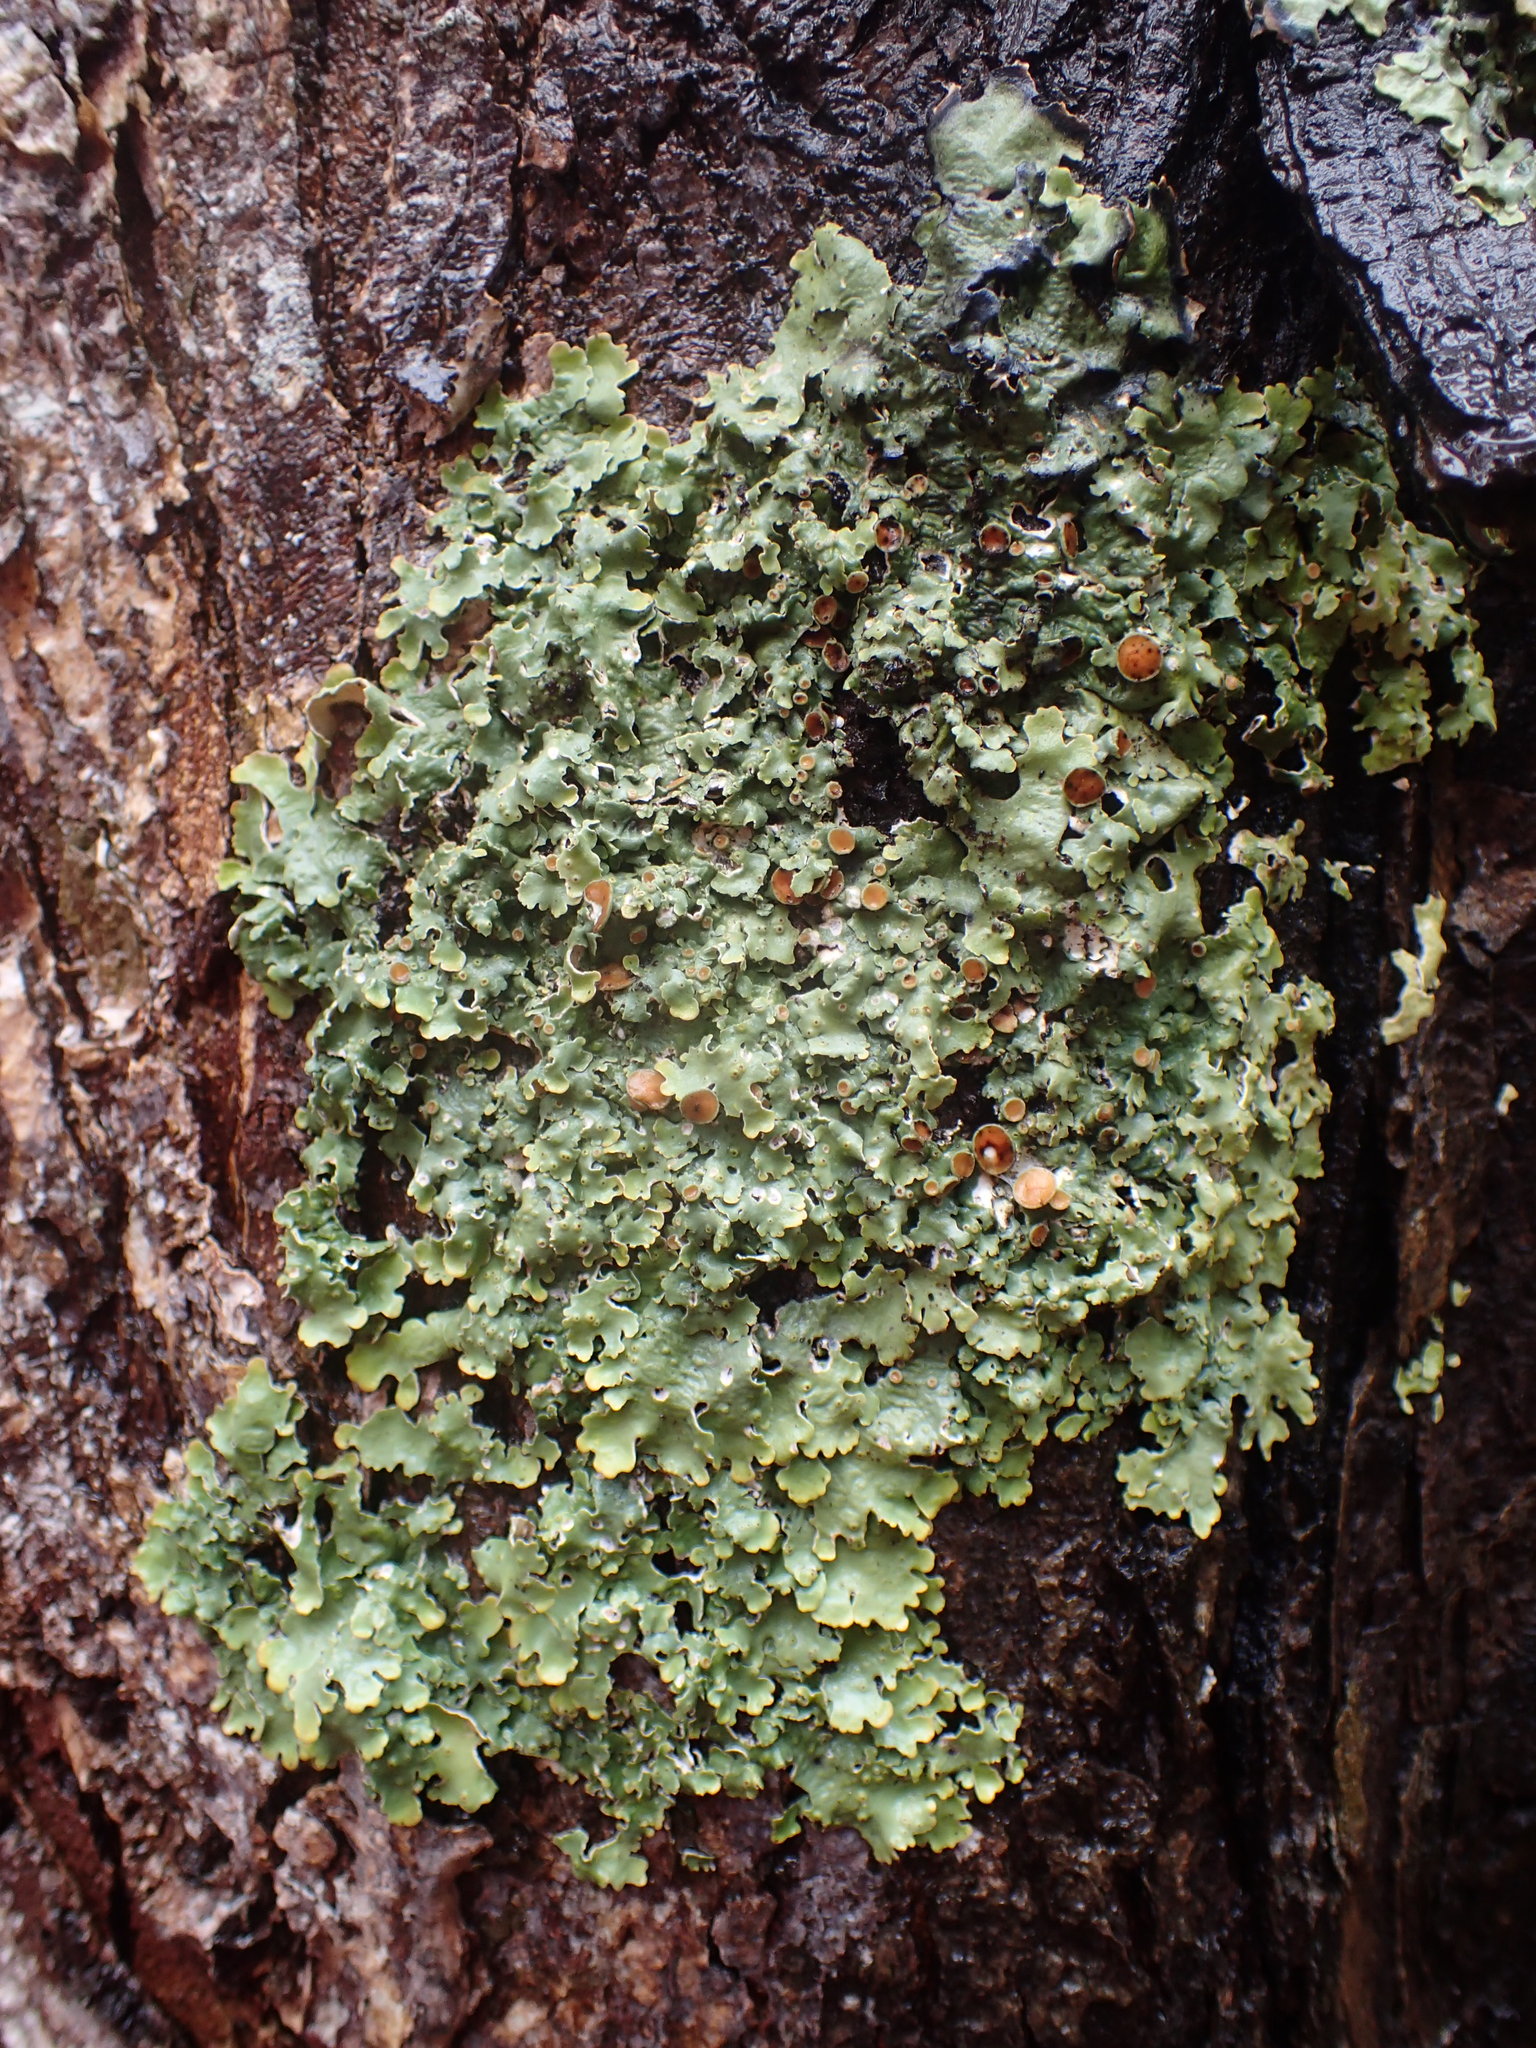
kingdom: Fungi
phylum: Ascomycota
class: Lecanoromycetes
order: Peltigerales
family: Lobariaceae
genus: Ricasolia
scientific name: Ricasolia quercizans
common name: Smooth lungwort
